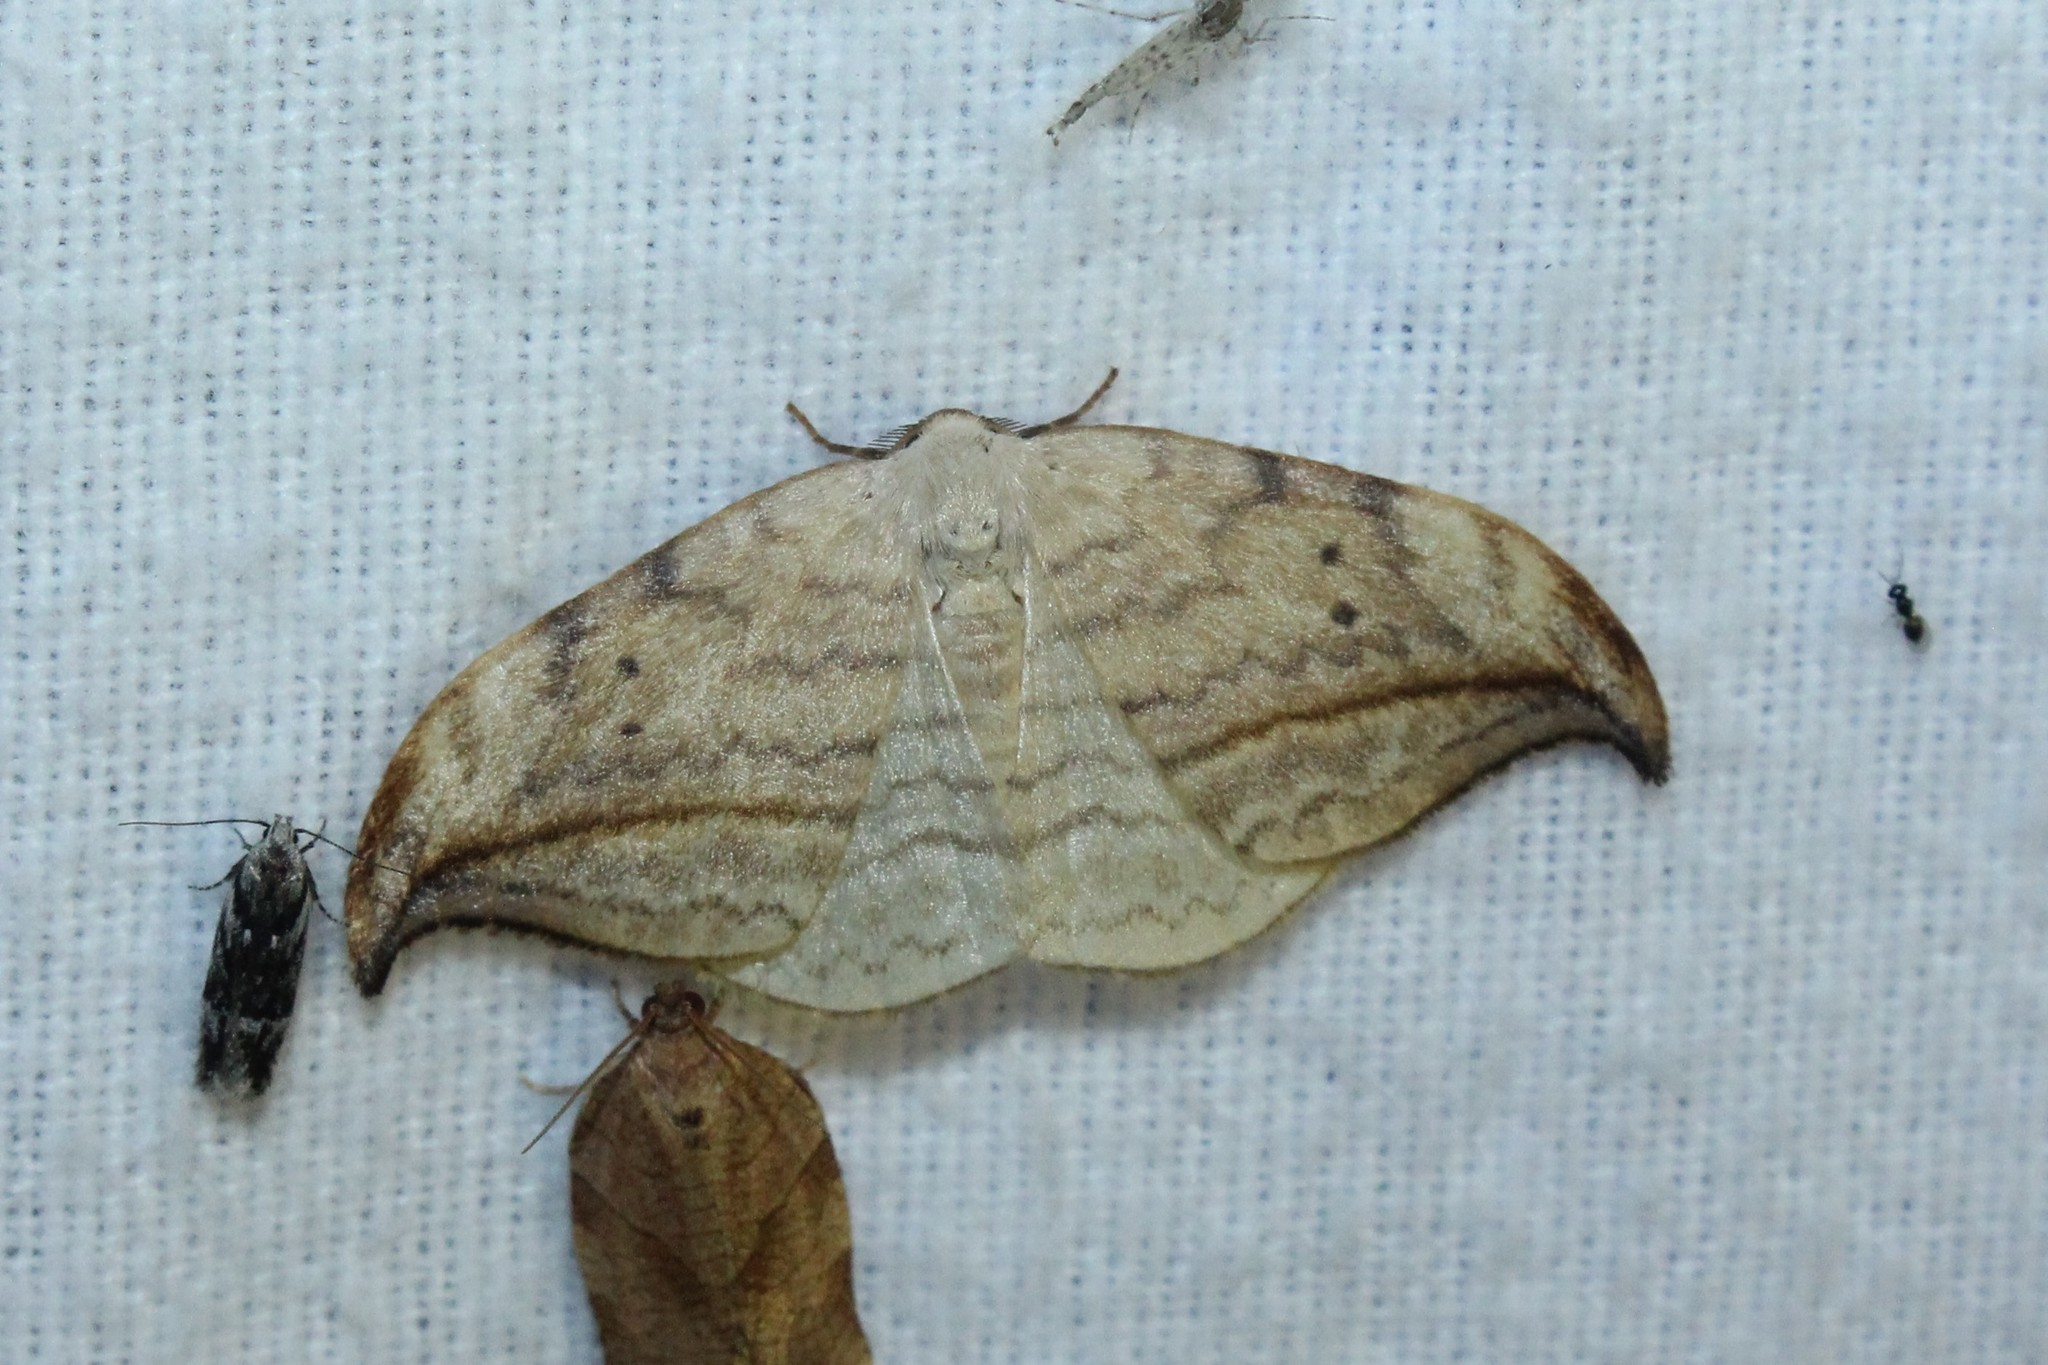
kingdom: Animalia
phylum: Arthropoda
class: Insecta
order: Lepidoptera
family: Drepanidae
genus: Drepana
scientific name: Drepana arcuata
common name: Arched hooktip moth
